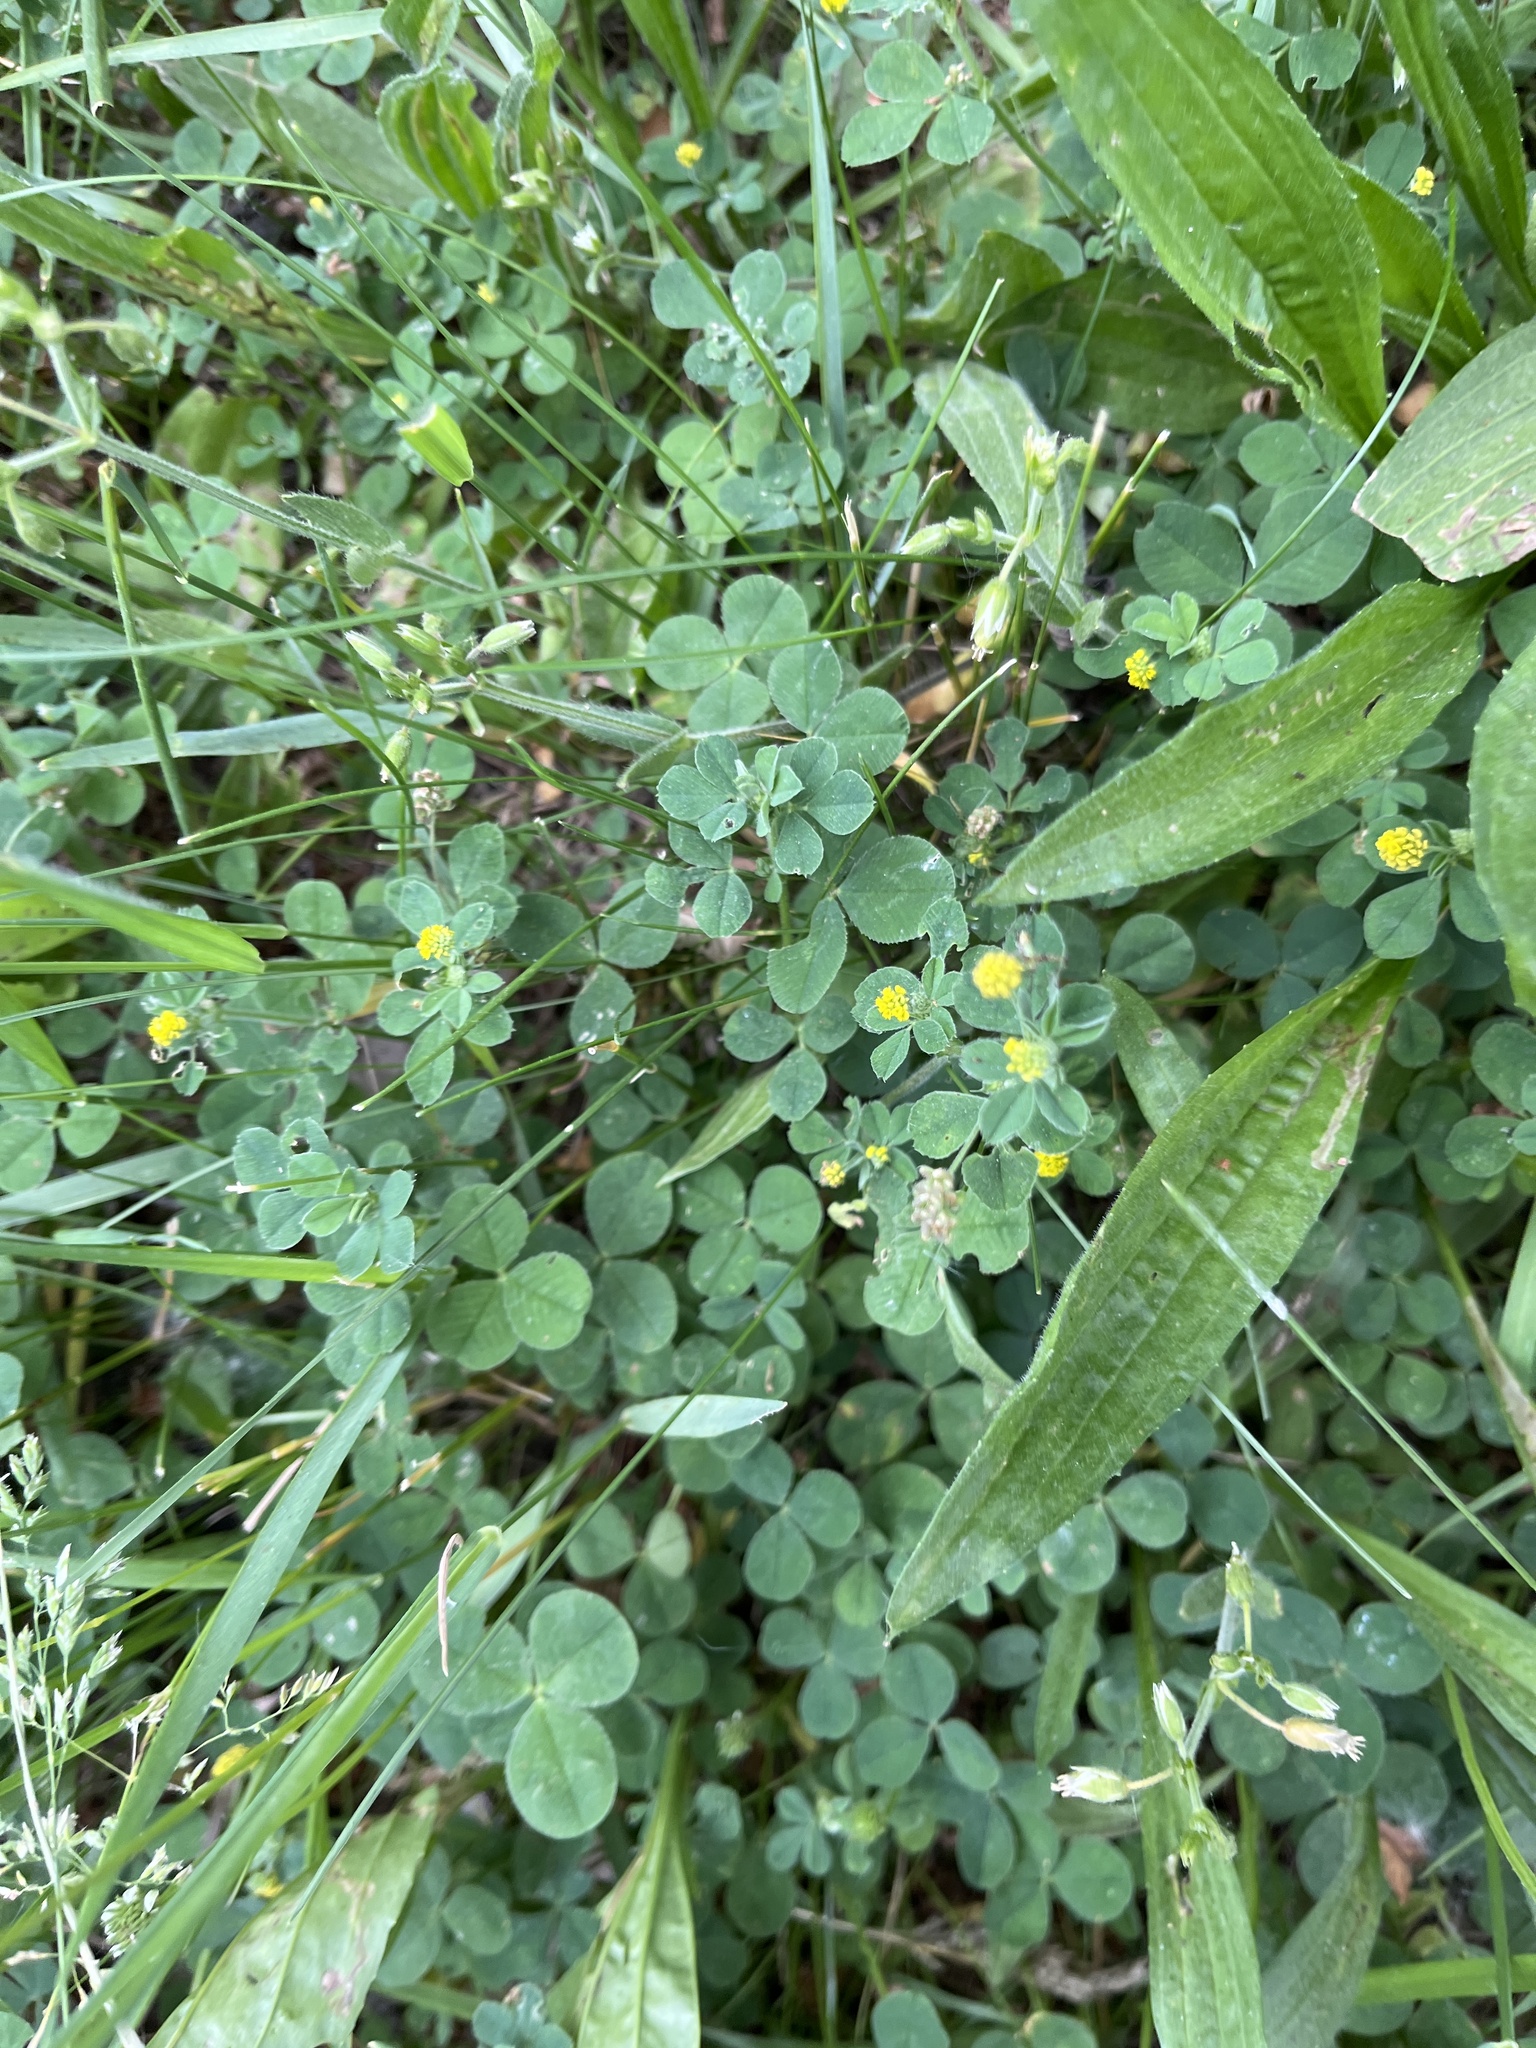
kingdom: Plantae
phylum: Tracheophyta
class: Magnoliopsida
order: Fabales
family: Fabaceae
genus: Medicago
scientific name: Medicago lupulina
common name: Black medick
